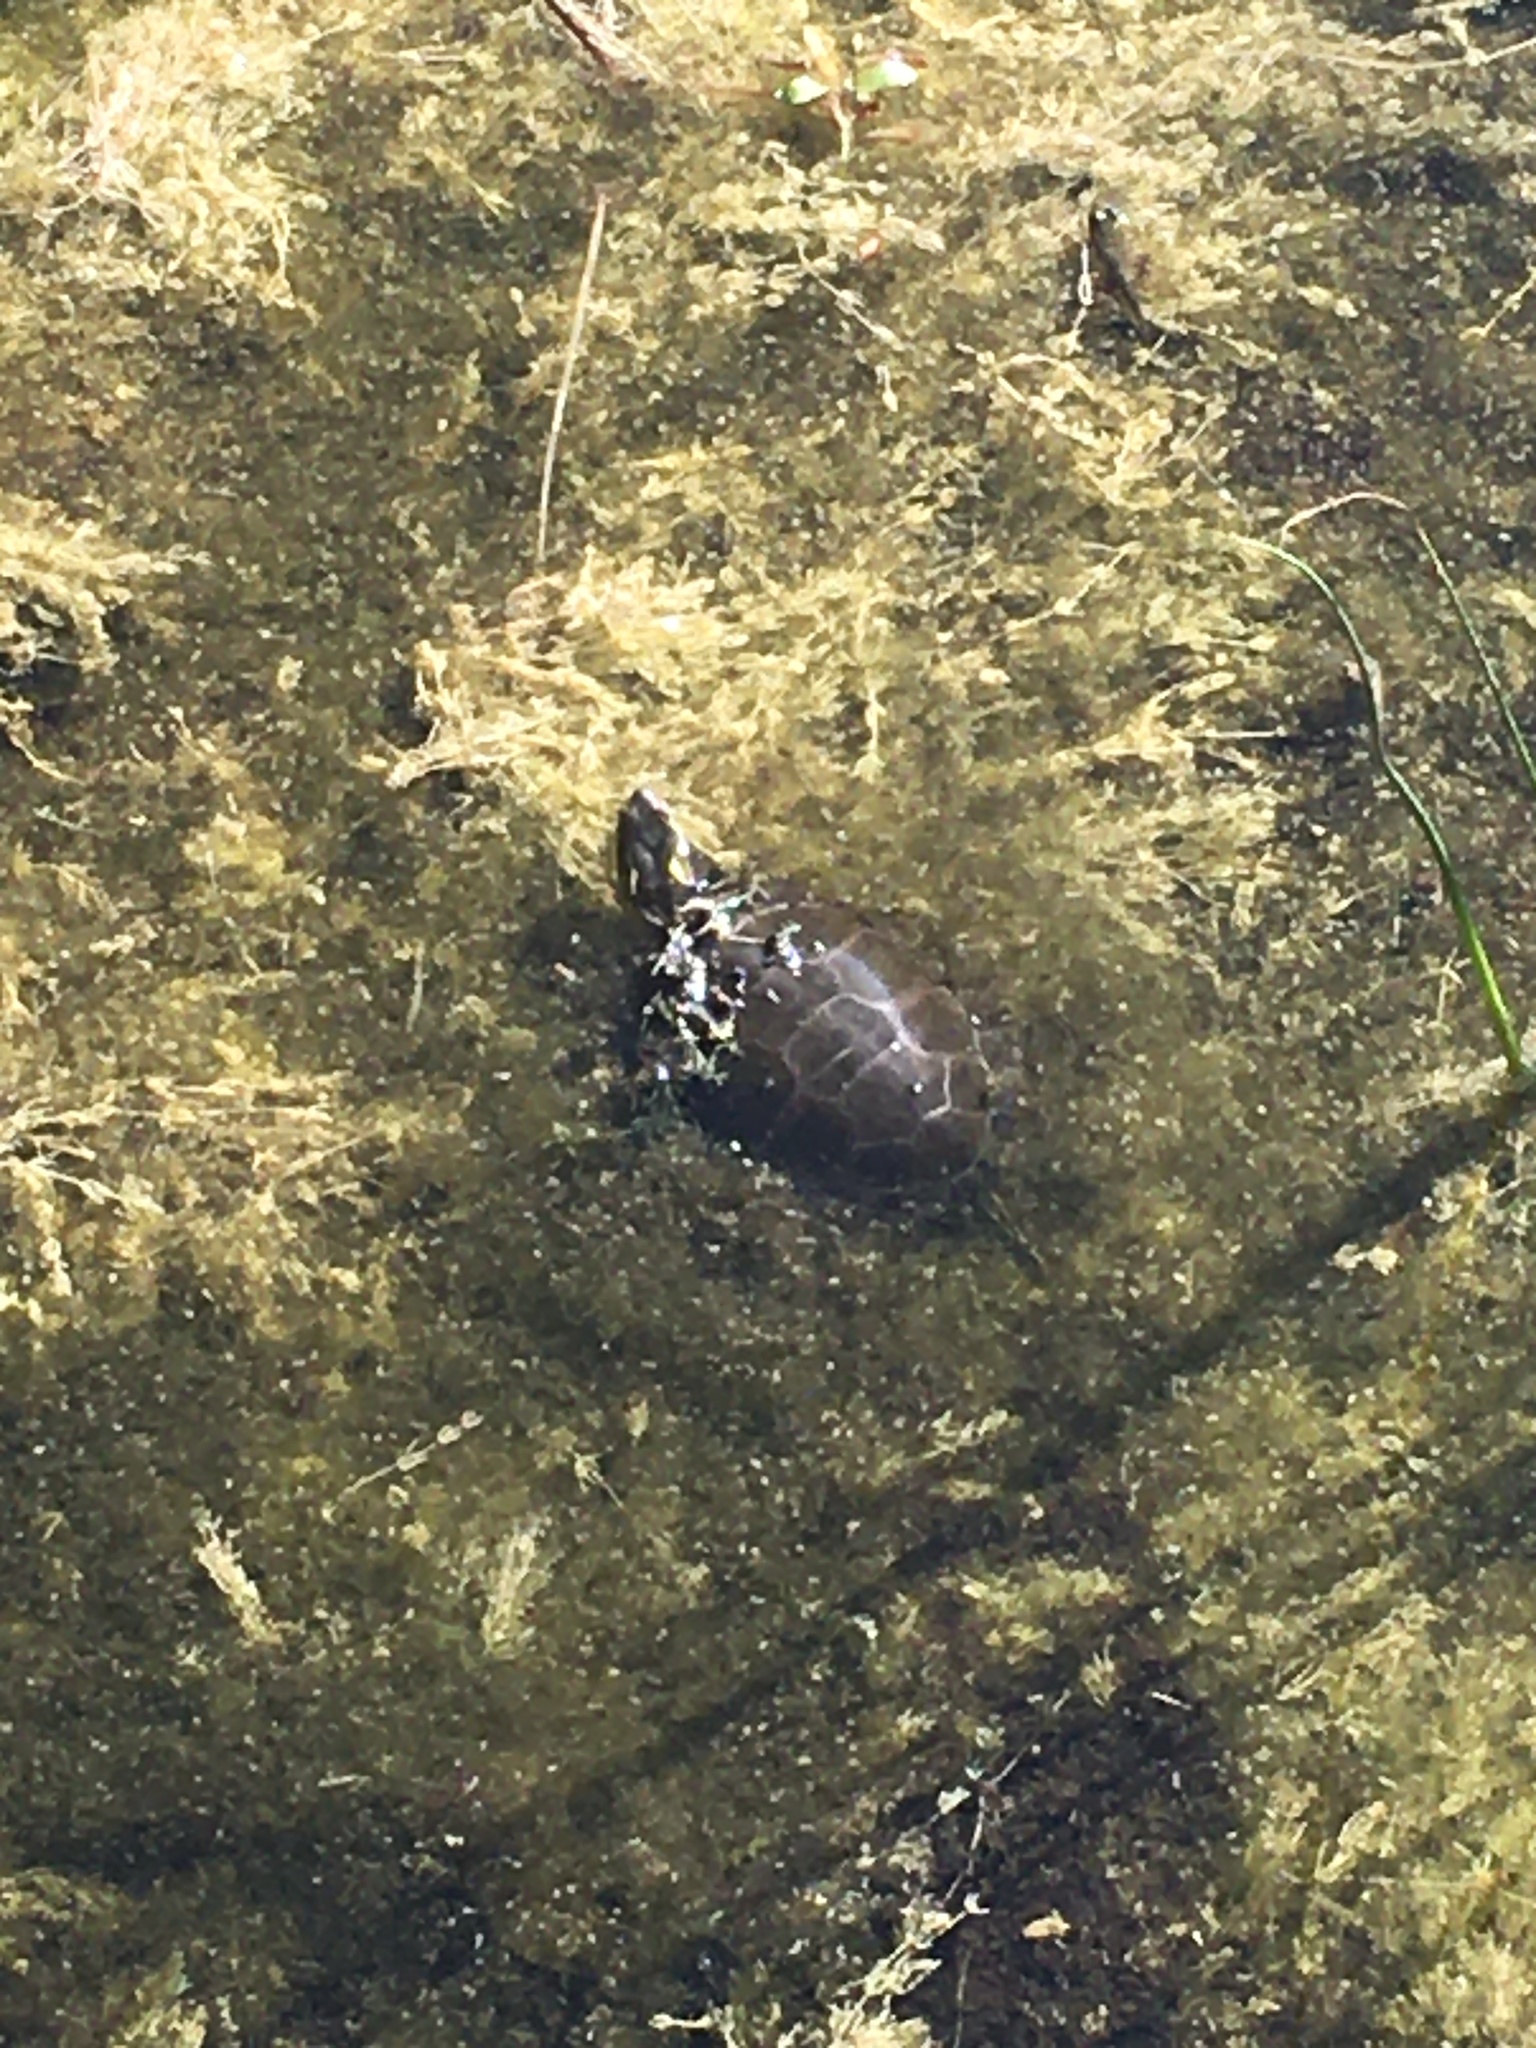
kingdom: Animalia
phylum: Chordata
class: Testudines
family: Emydidae
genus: Chrysemys
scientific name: Chrysemys picta
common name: Painted turtle
